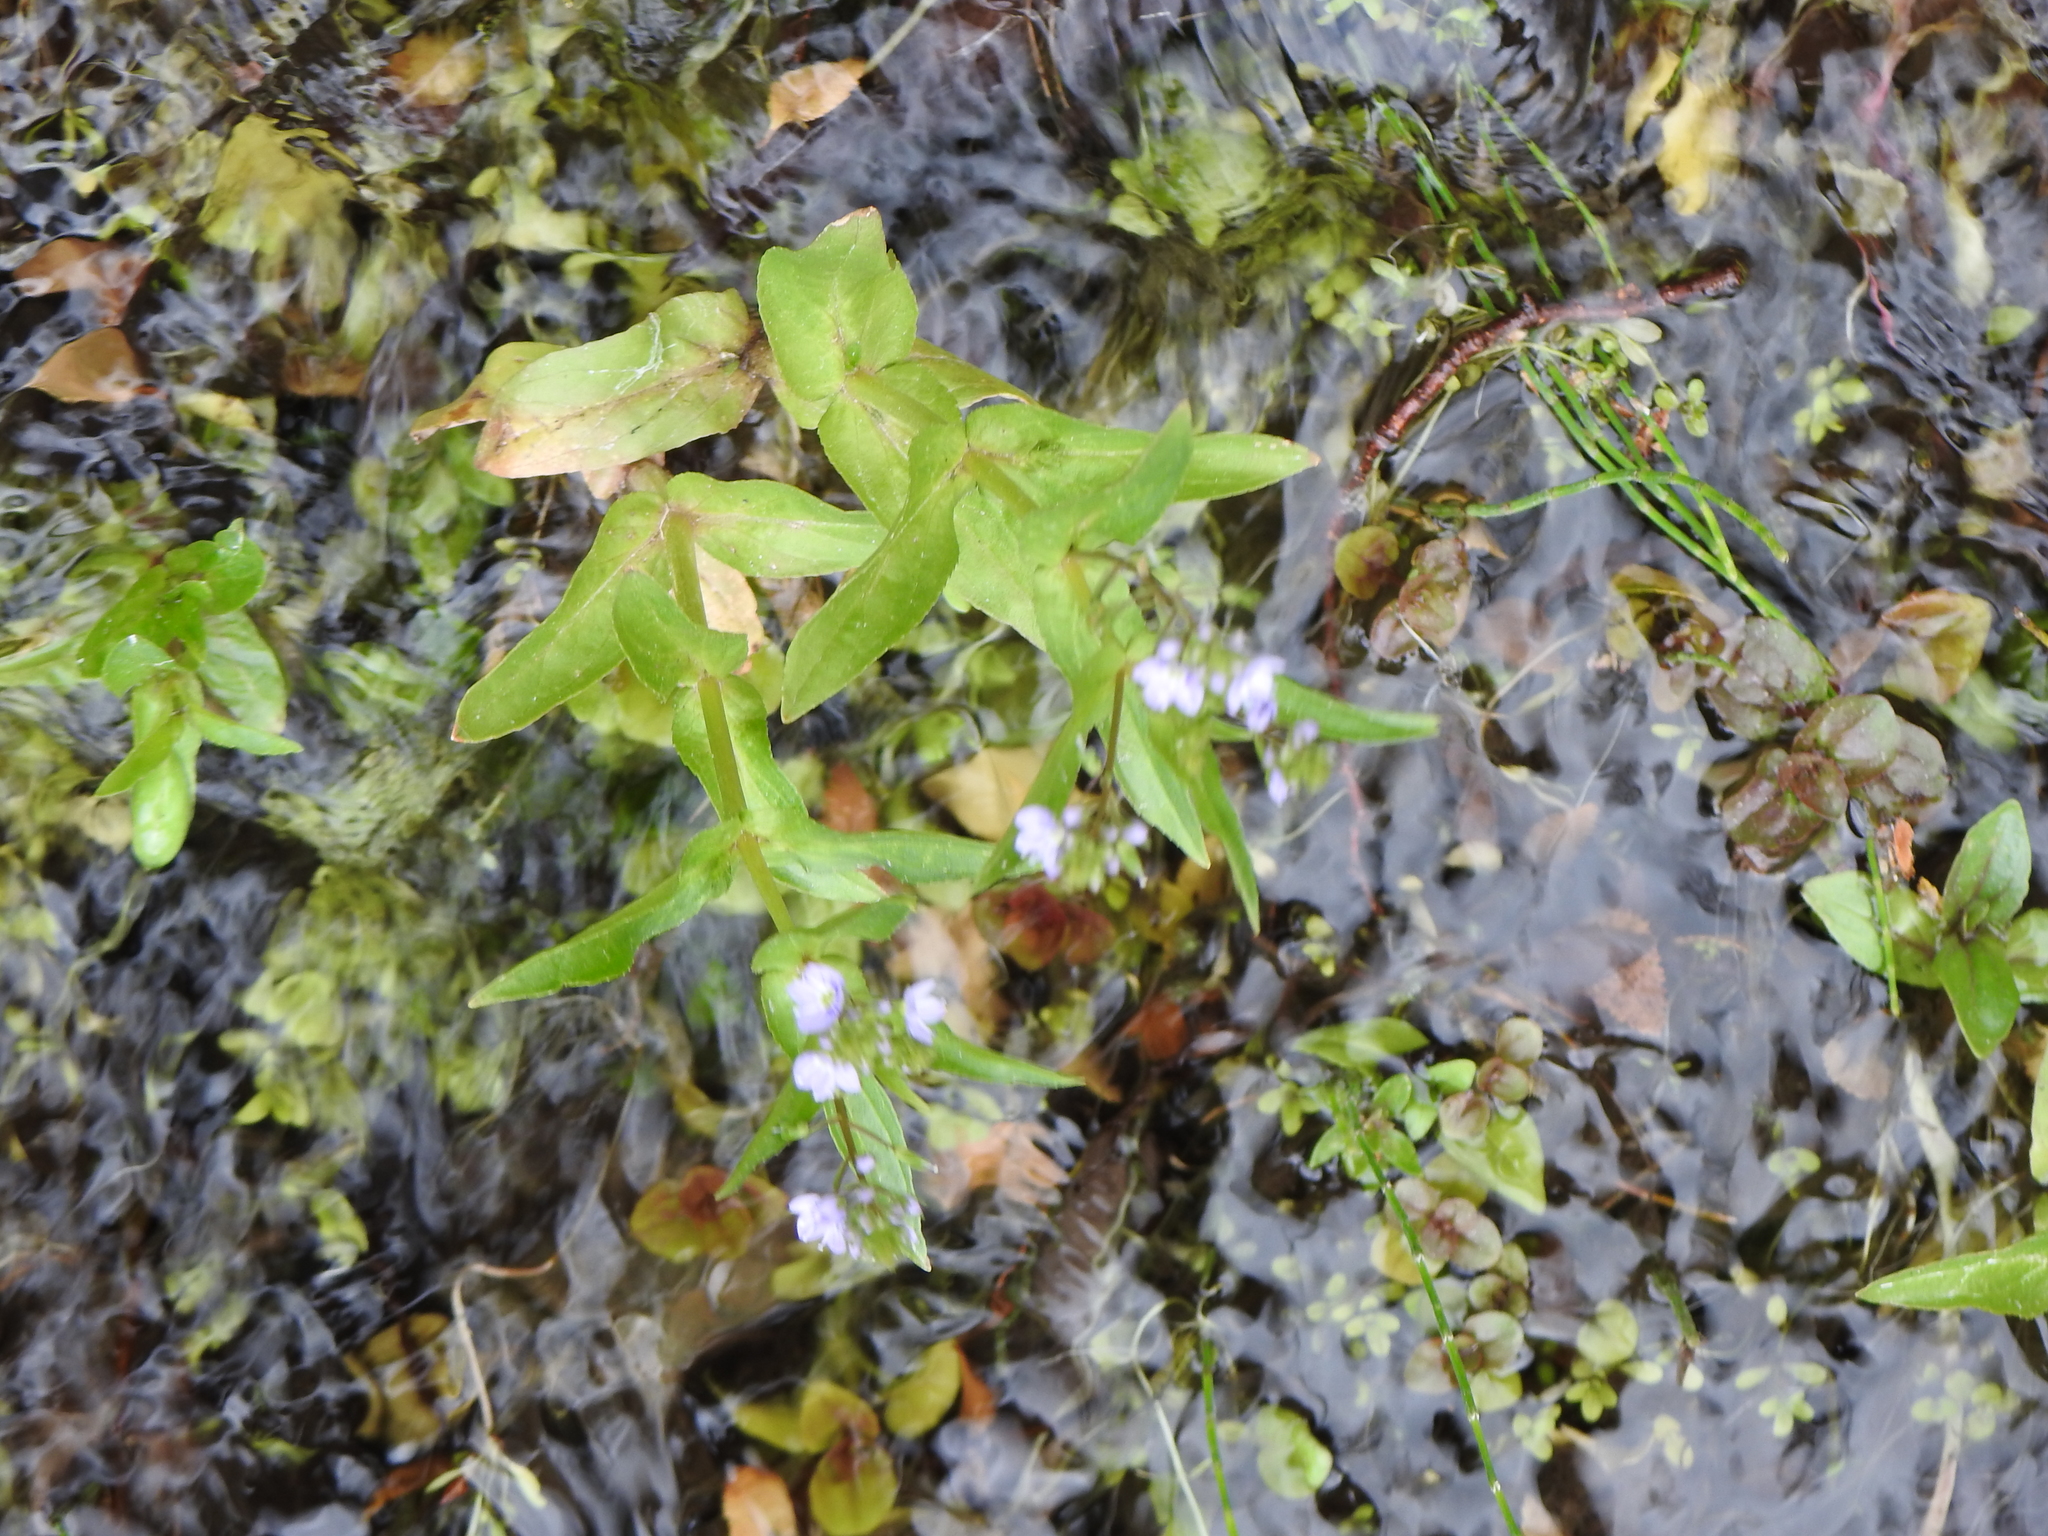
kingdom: Plantae
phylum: Tracheophyta
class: Magnoliopsida
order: Lamiales
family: Plantaginaceae
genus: Veronica
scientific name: Veronica anagallis-aquatica
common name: Water speedwell
